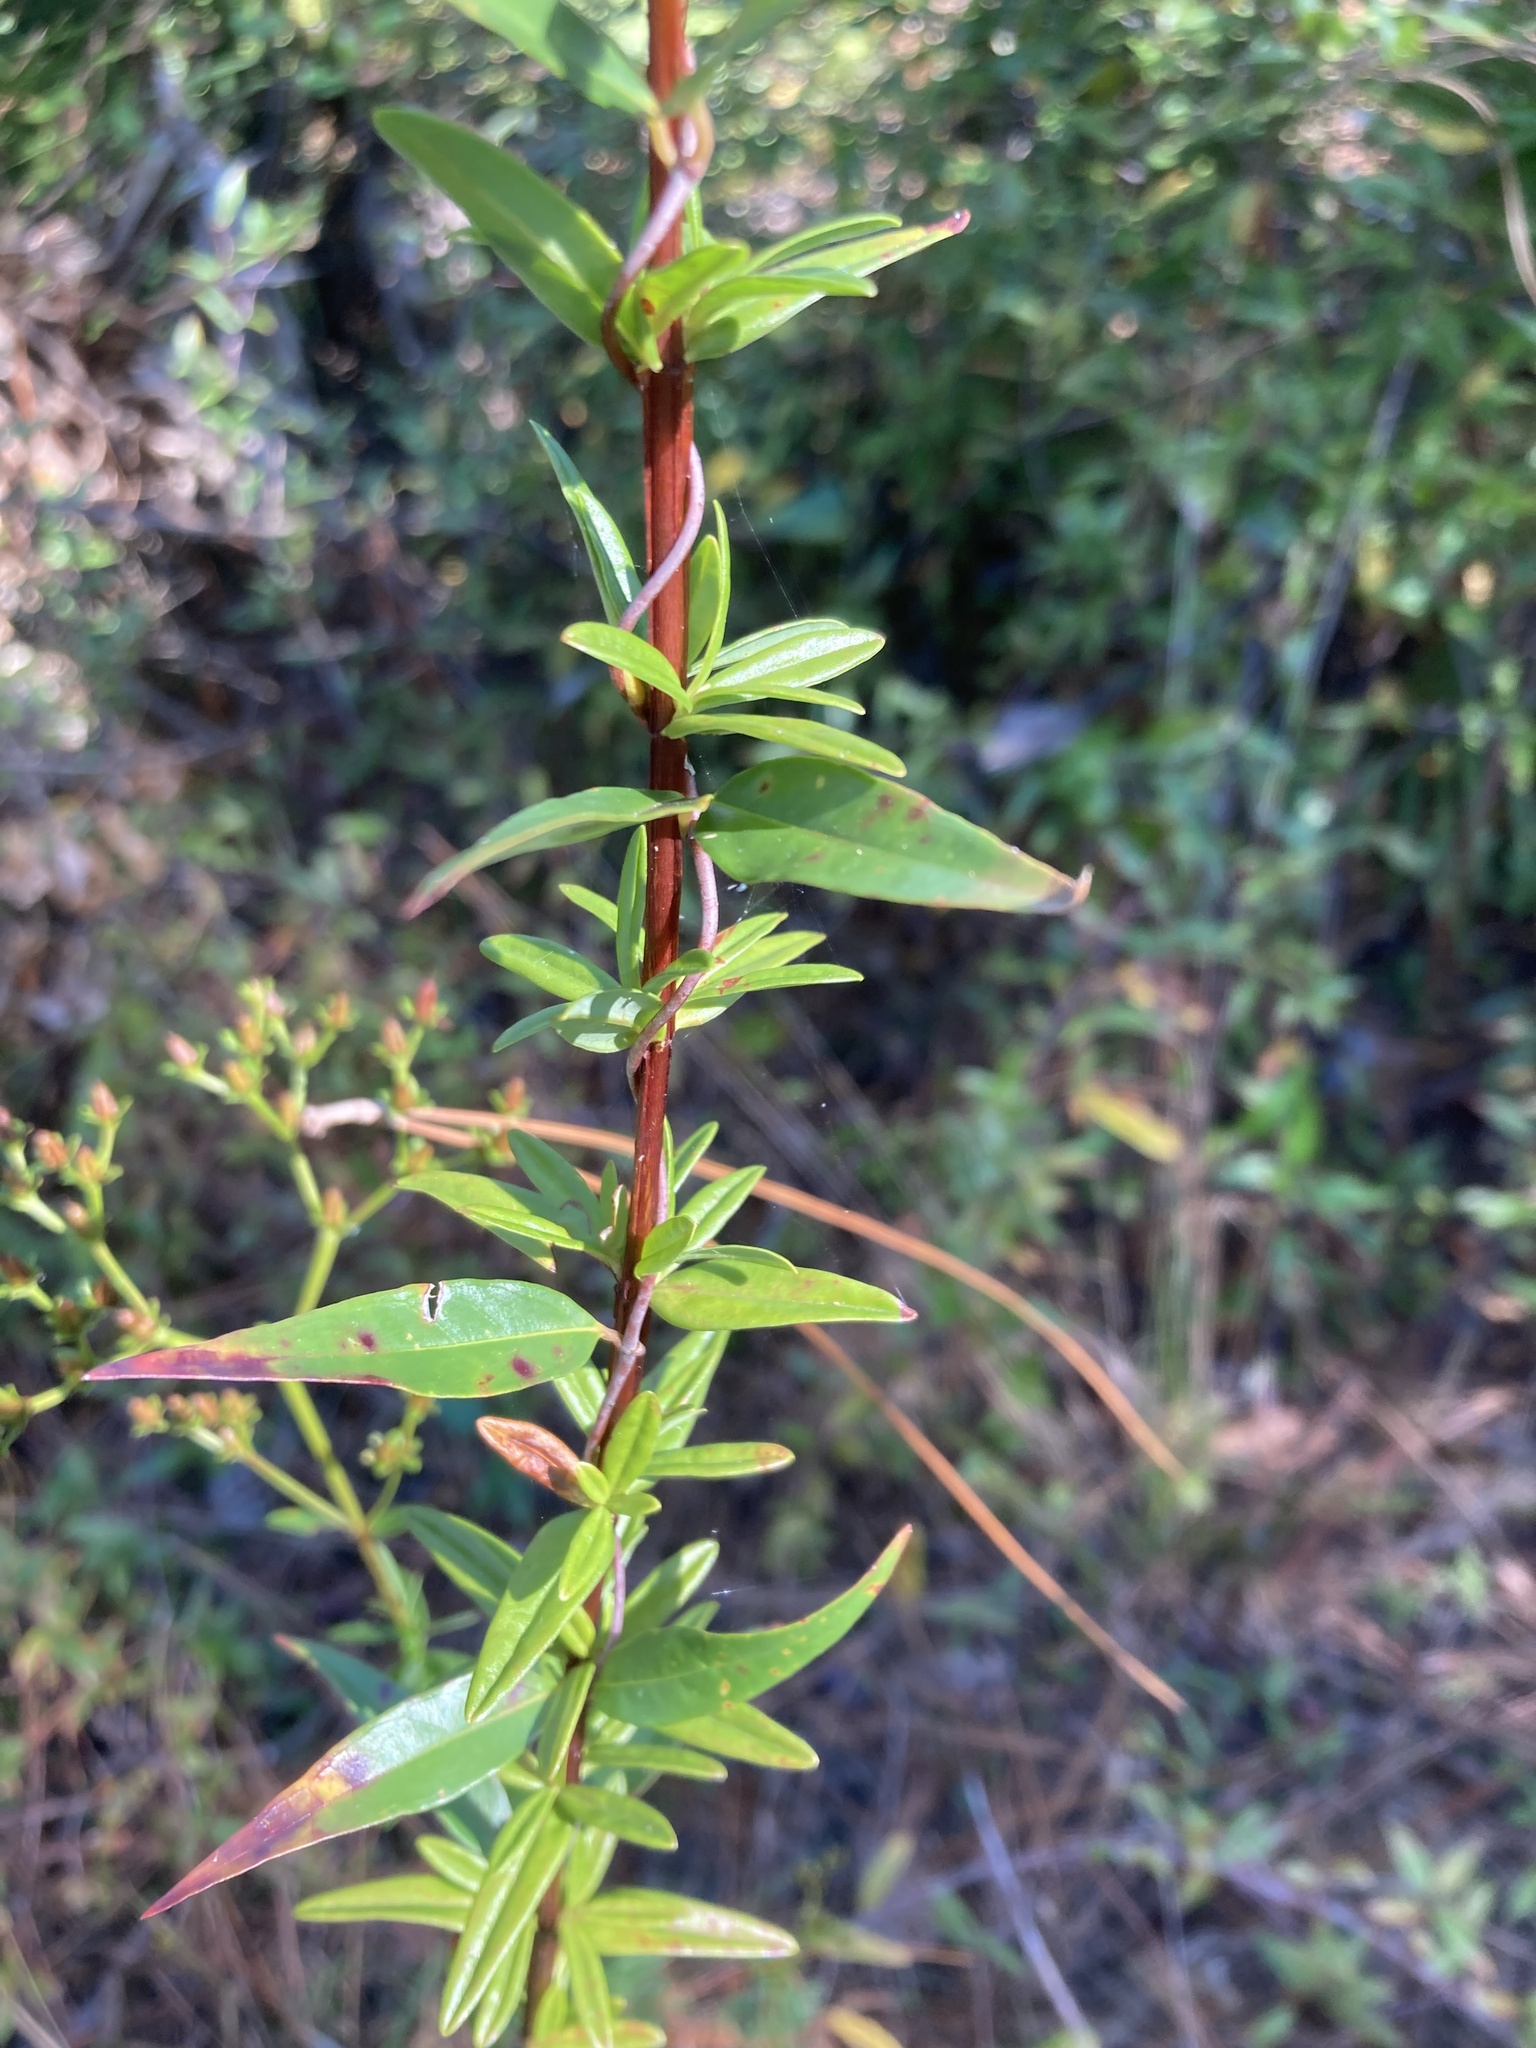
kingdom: Plantae
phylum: Tracheophyta
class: Magnoliopsida
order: Malpighiales
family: Hypericaceae
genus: Hypericum
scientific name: Hypericum cistifolium
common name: Round-pod st. john's-wort
